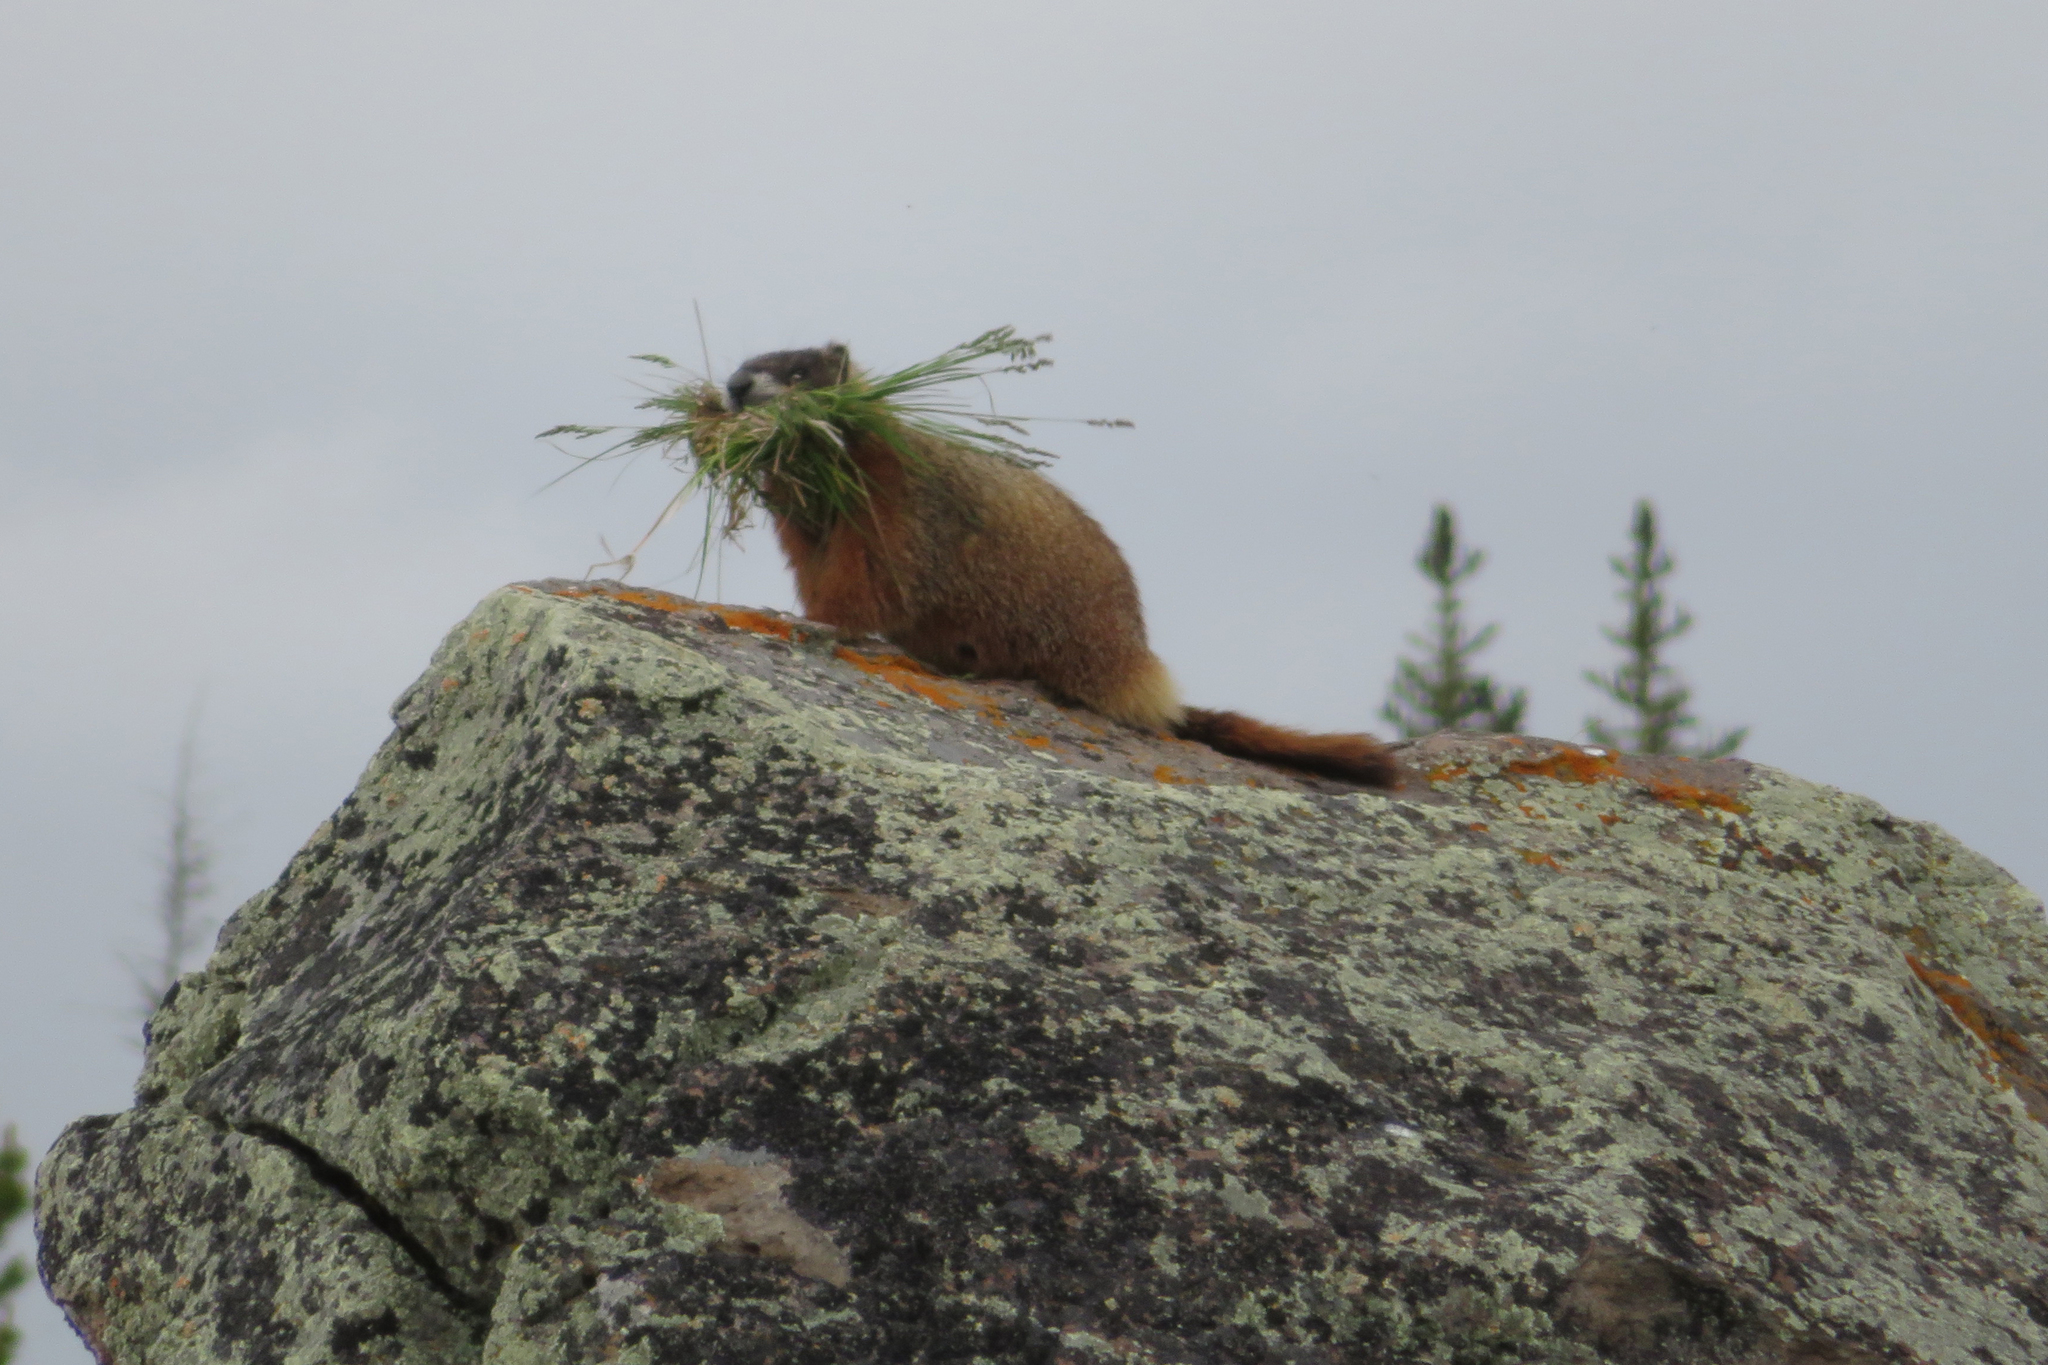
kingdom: Animalia
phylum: Chordata
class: Mammalia
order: Rodentia
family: Sciuridae
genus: Marmota
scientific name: Marmota flaviventris
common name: Yellow-bellied marmot
